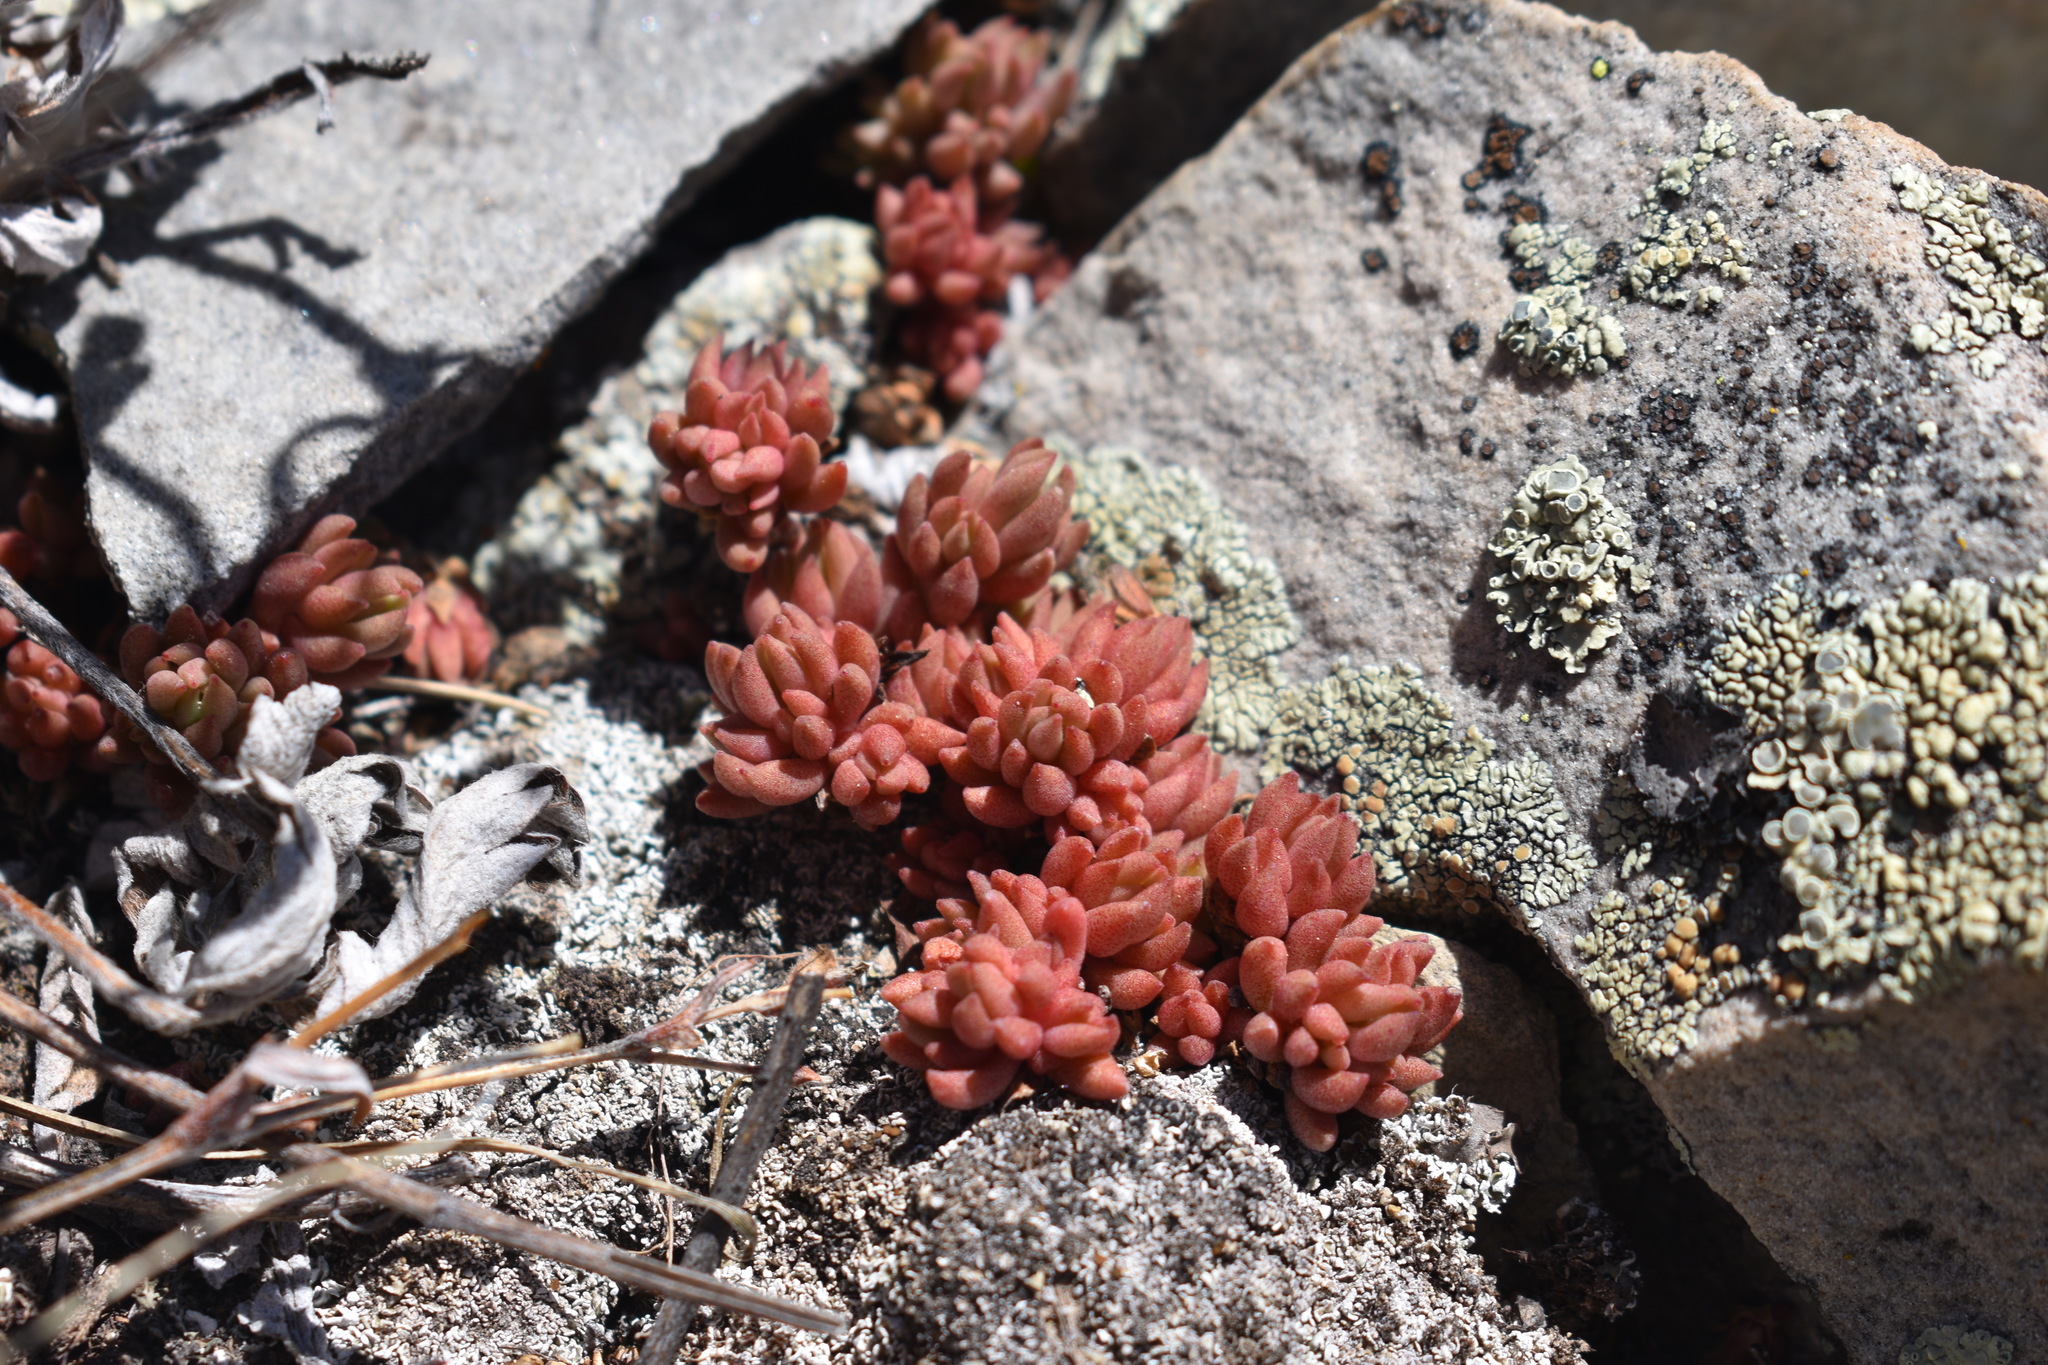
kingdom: Plantae
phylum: Tracheophyta
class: Magnoliopsida
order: Saxifragales
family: Crassulaceae
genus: Sedum
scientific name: Sedum lanceolatum
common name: Common stonecrop
